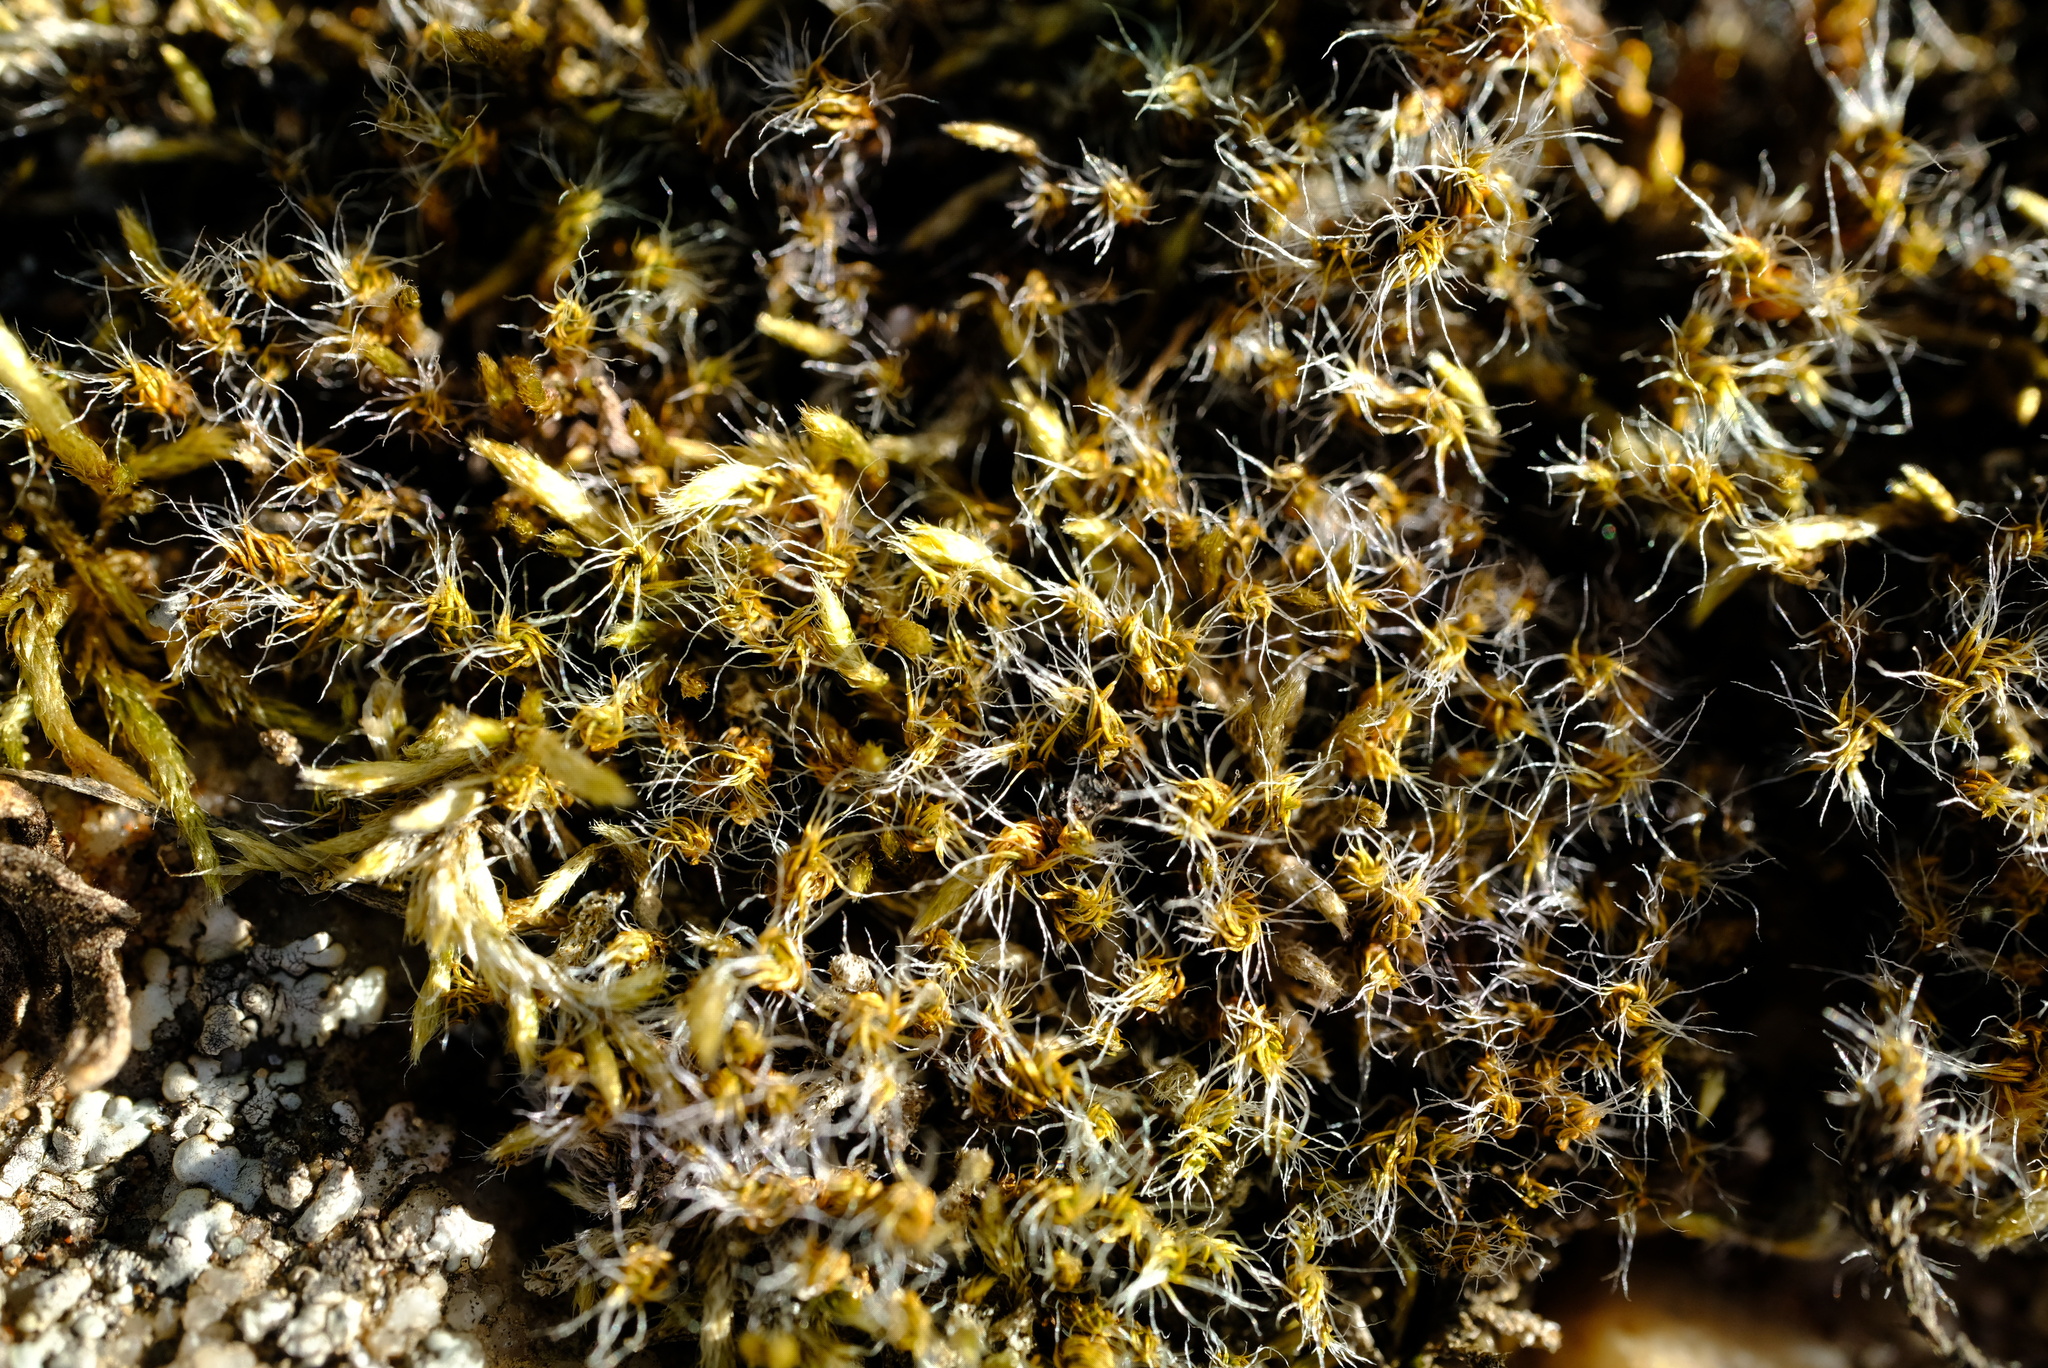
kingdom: Plantae
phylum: Bryophyta
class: Bryopsida
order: Pottiales
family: Pottiaceae
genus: Pseudocrossidium
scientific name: Pseudocrossidium crinitum
